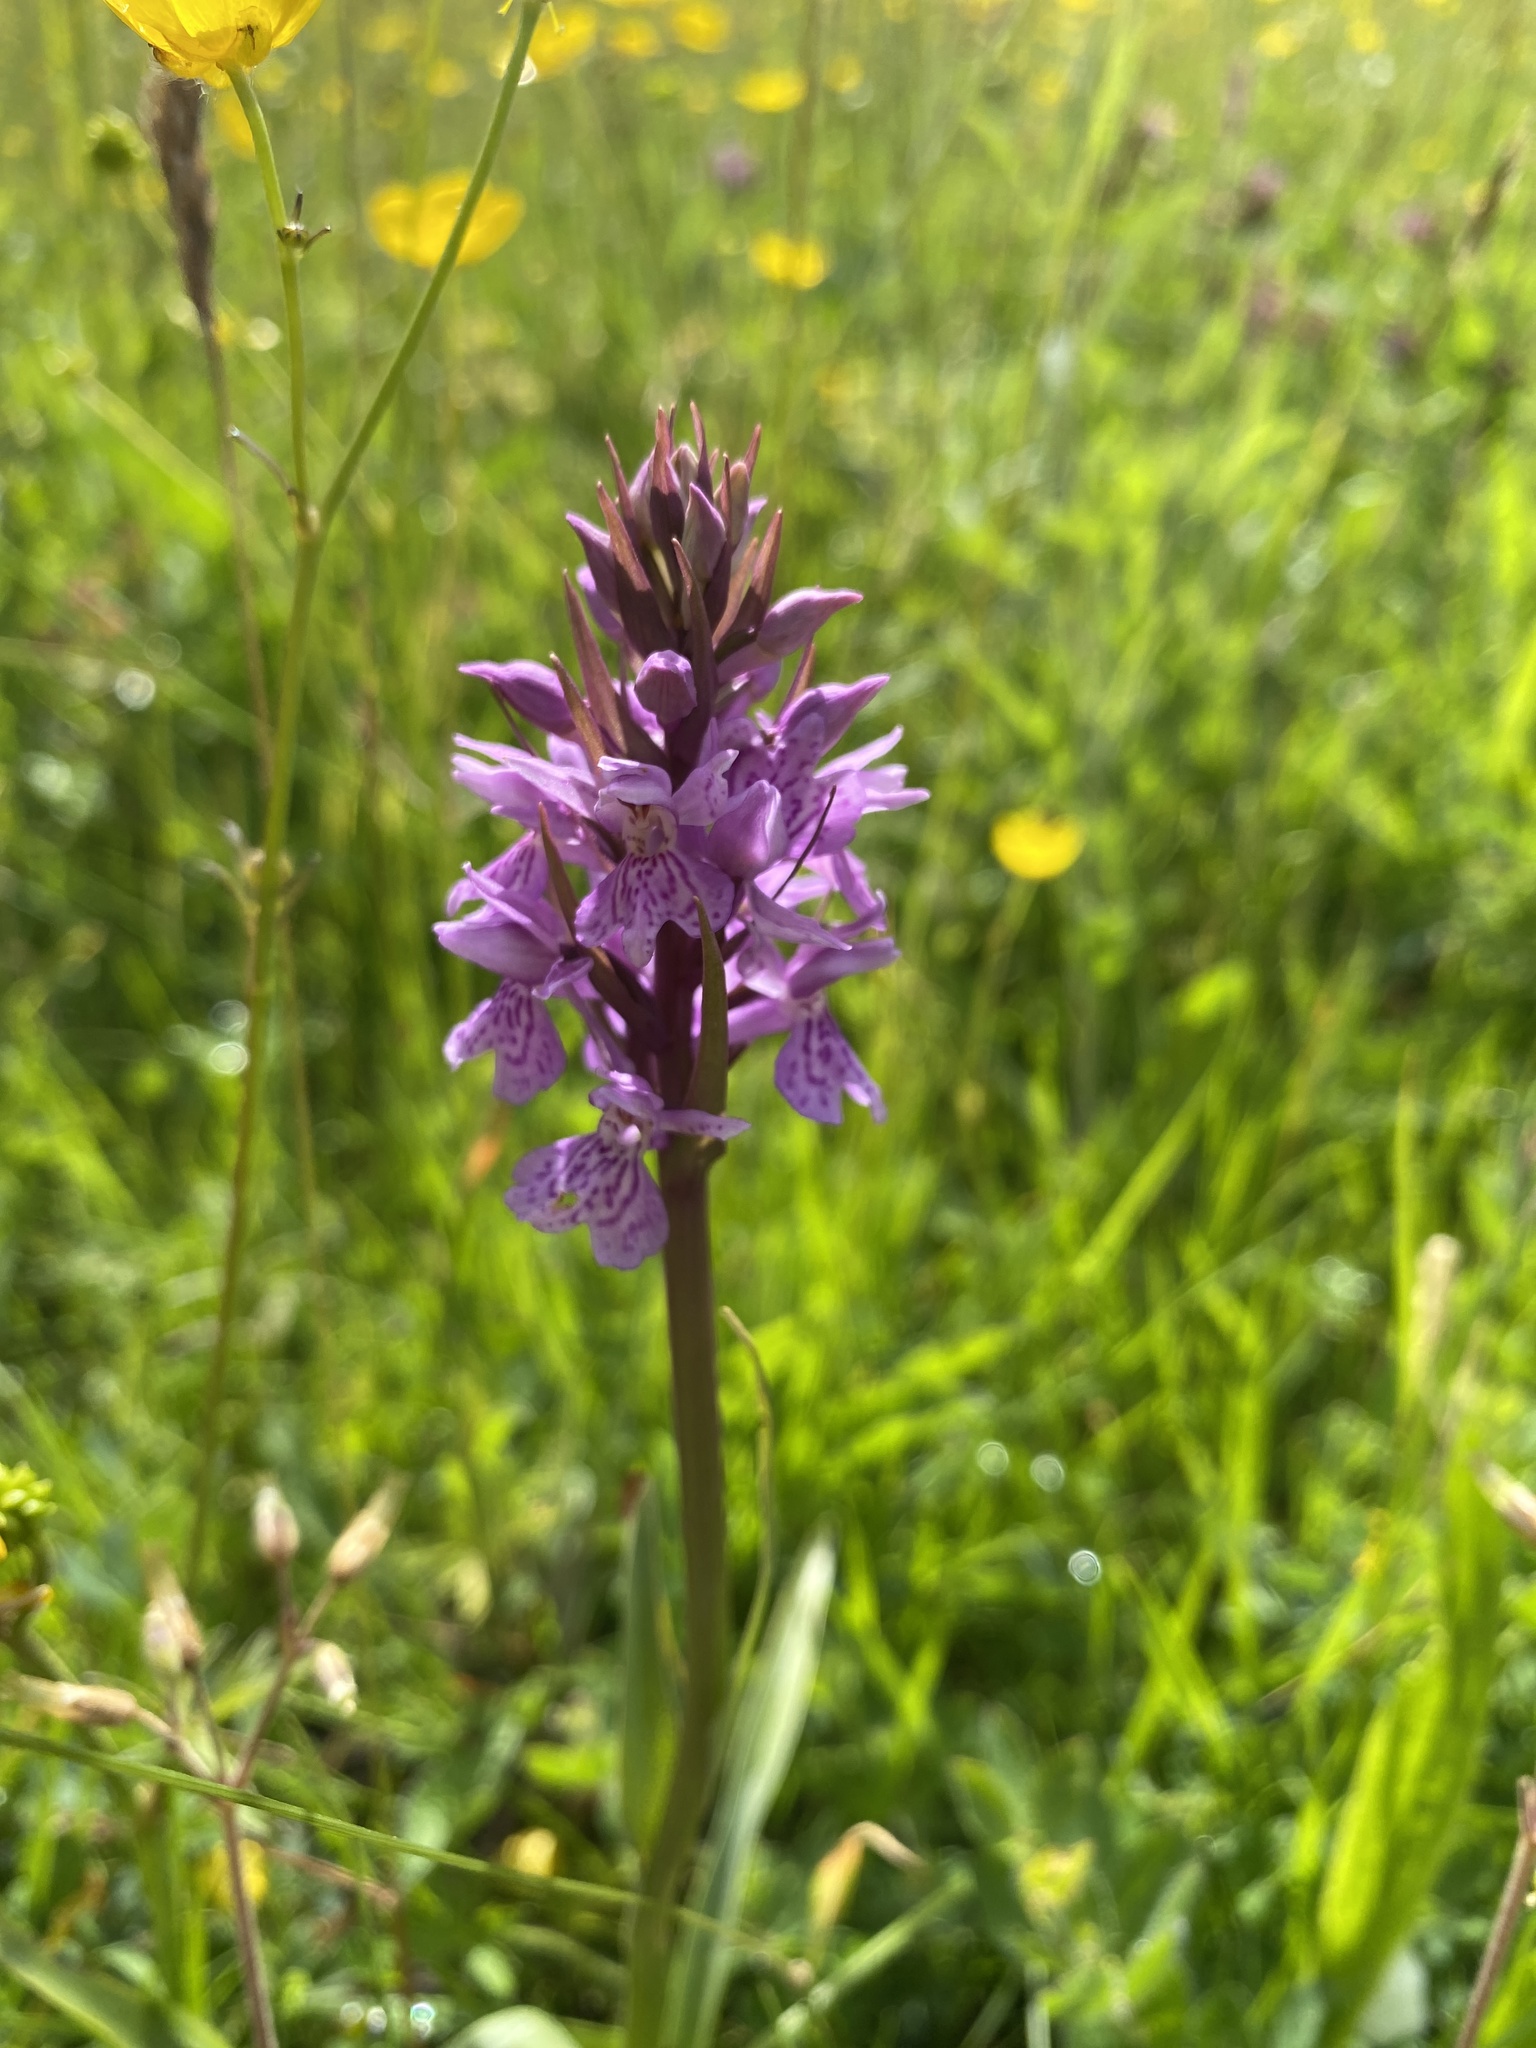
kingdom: Plantae
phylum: Tracheophyta
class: Liliopsida
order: Asparagales
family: Orchidaceae
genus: Dactylorhiza
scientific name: Dactylorhiza maculata
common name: Heath spotted-orchid
